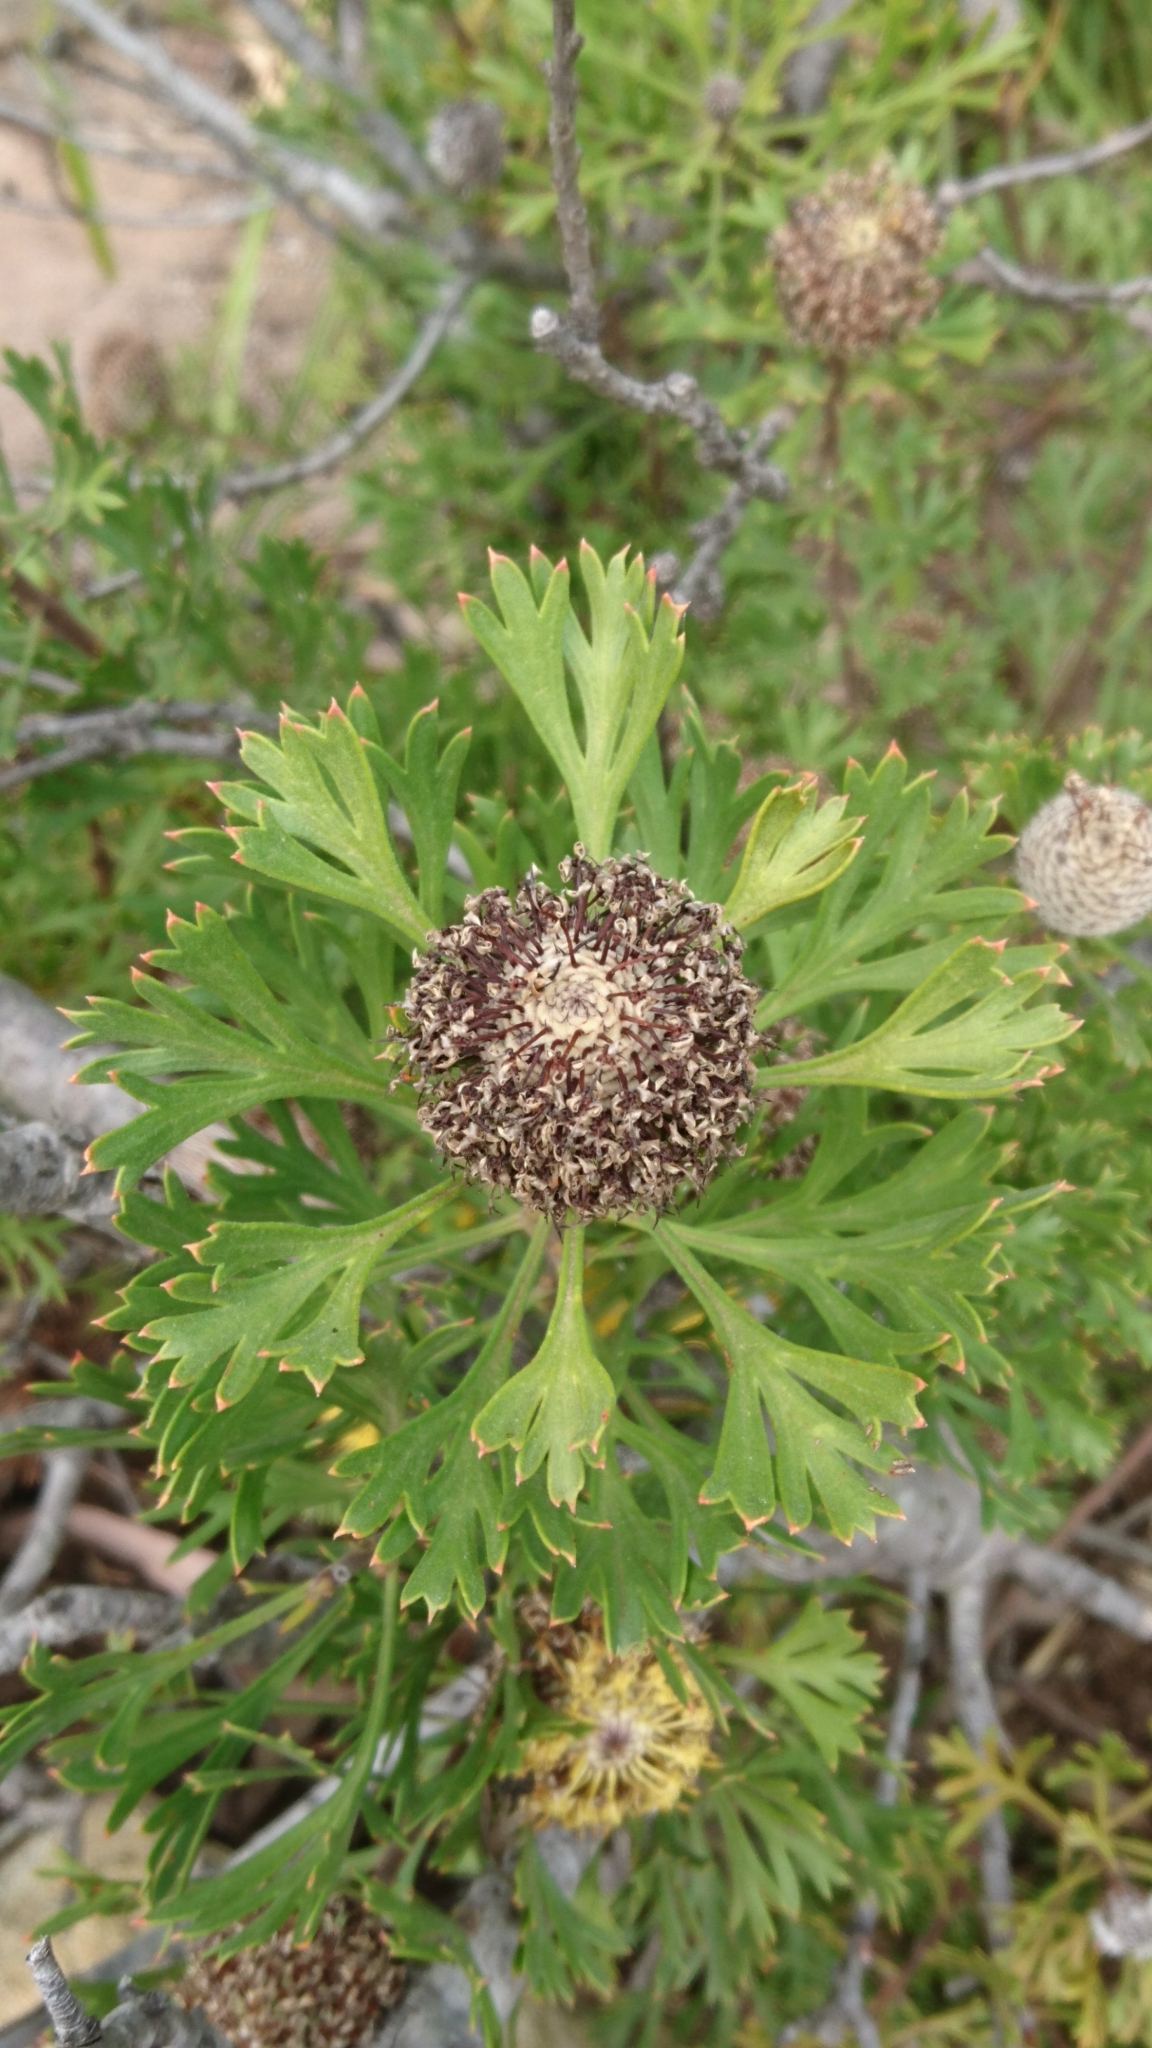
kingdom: Plantae
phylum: Tracheophyta
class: Magnoliopsida
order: Proteales
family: Proteaceae
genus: Isopogon
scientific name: Isopogon anemonifolius
